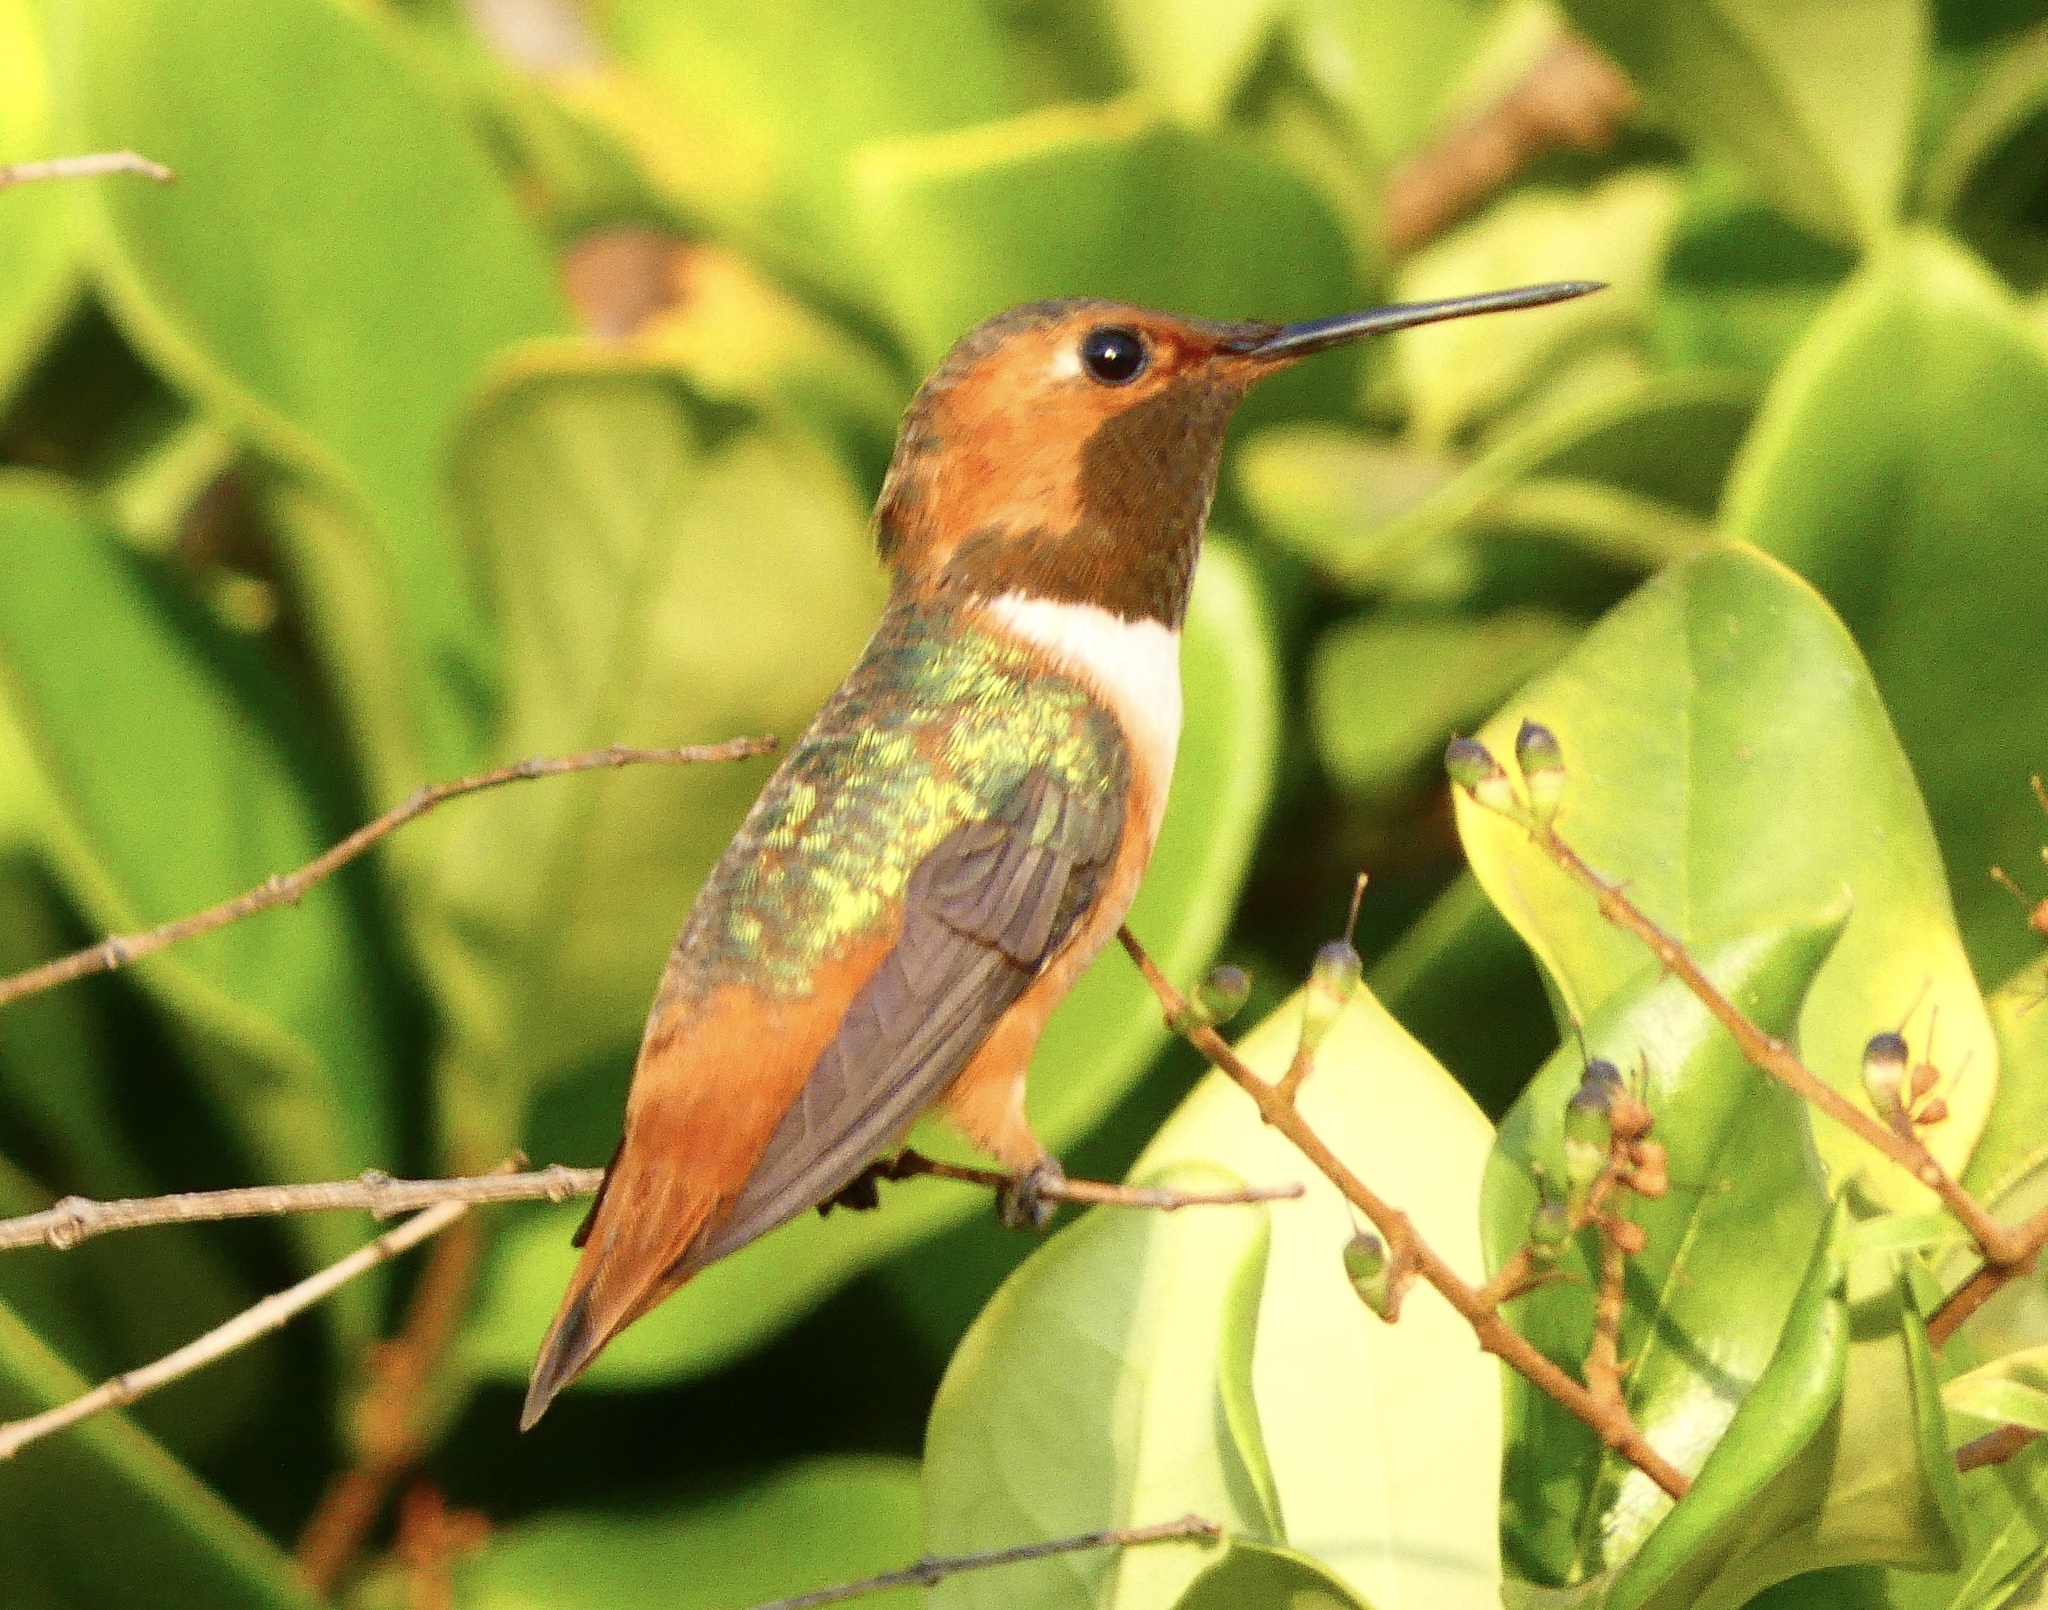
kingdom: Animalia
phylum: Chordata
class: Aves
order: Apodiformes
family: Trochilidae
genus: Selasphorus
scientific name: Selasphorus sasin
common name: Allen's hummingbird
